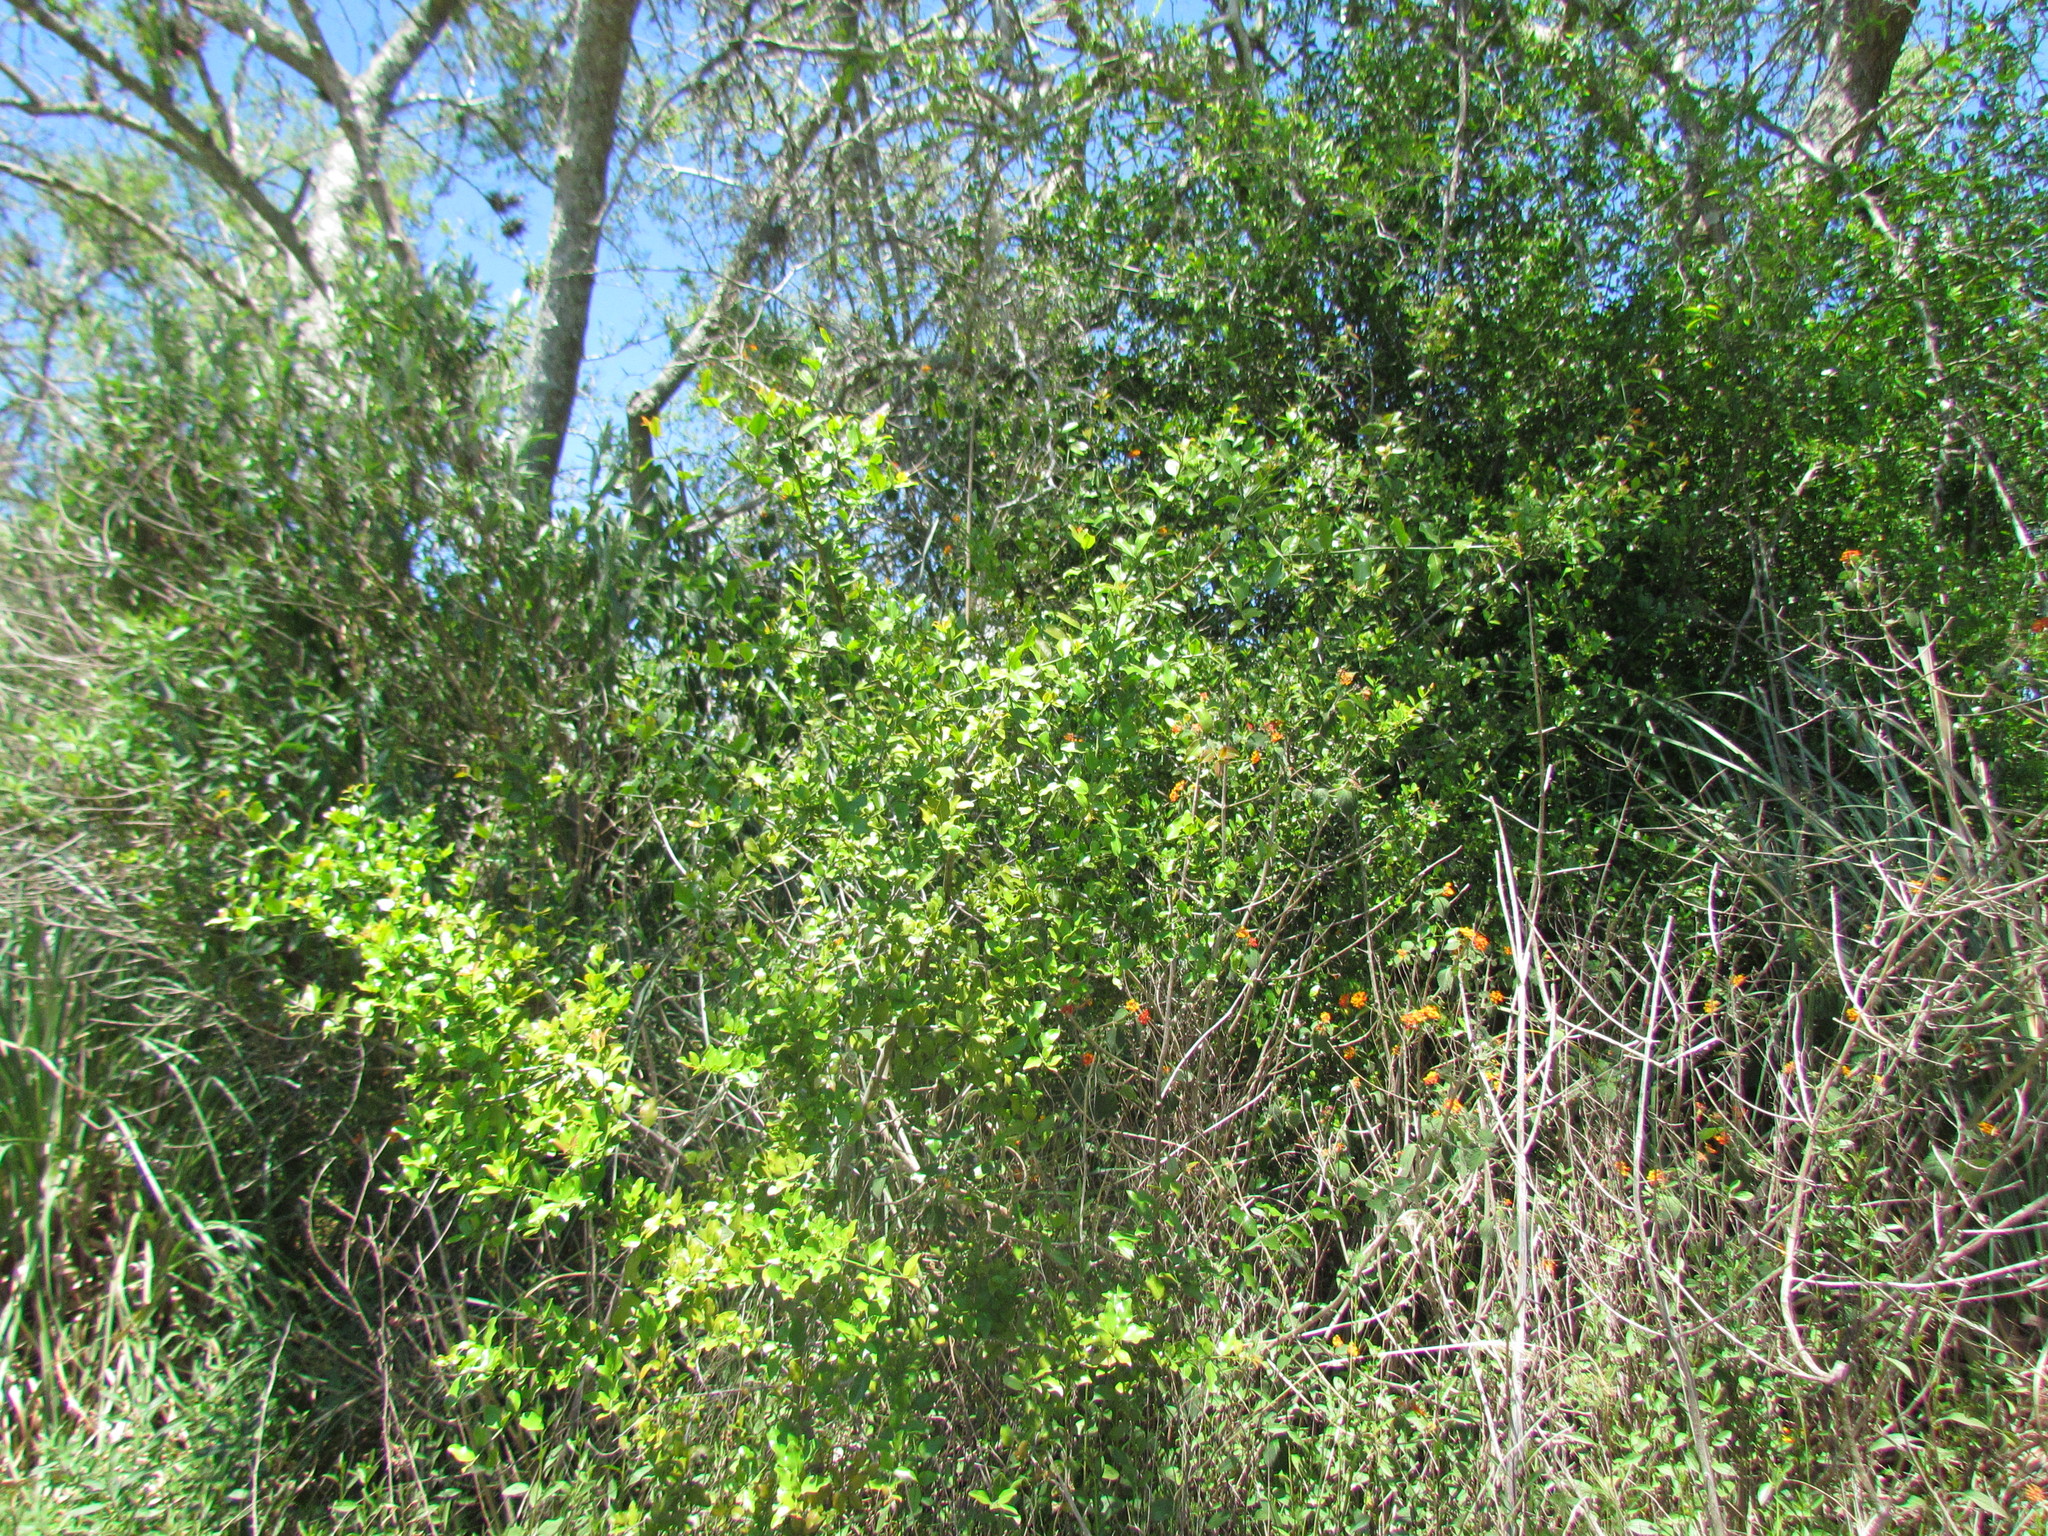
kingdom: Plantae
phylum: Tracheophyta
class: Magnoliopsida
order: Rosales
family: Rhamnaceae
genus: Scutia
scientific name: Scutia buxifolia
